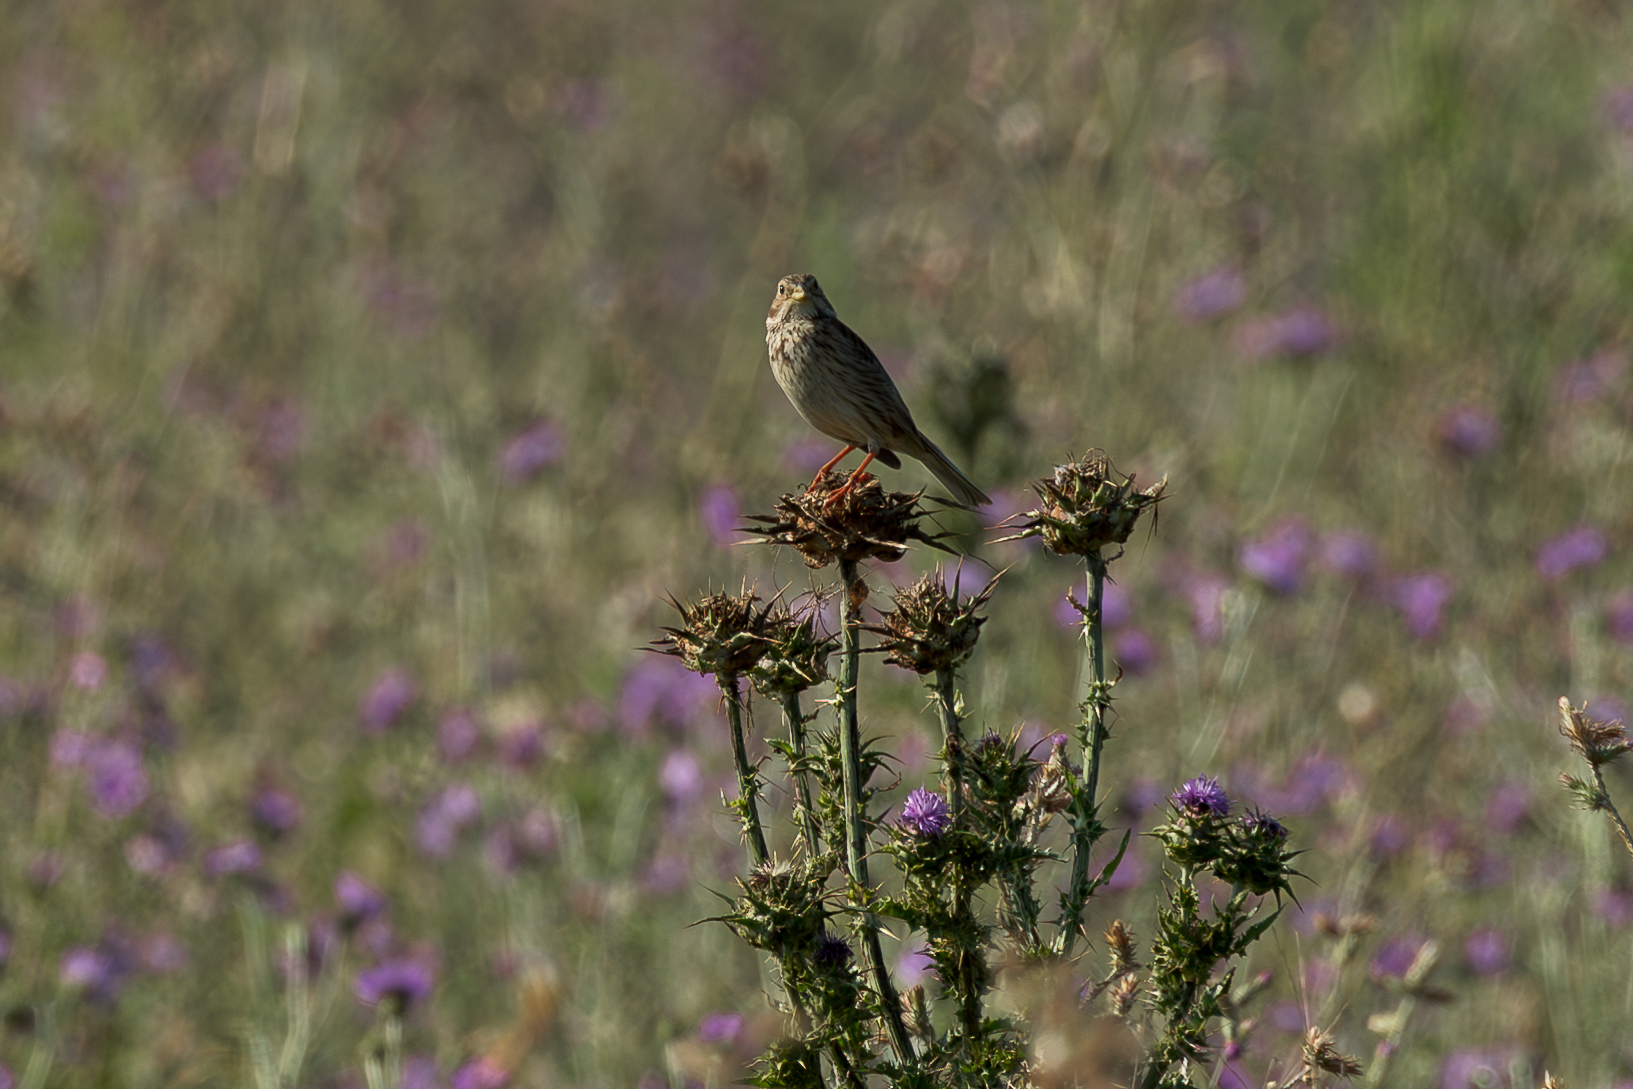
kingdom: Animalia
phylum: Chordata
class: Aves
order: Passeriformes
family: Emberizidae
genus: Emberiza
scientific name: Emberiza calandra
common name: Corn bunting
